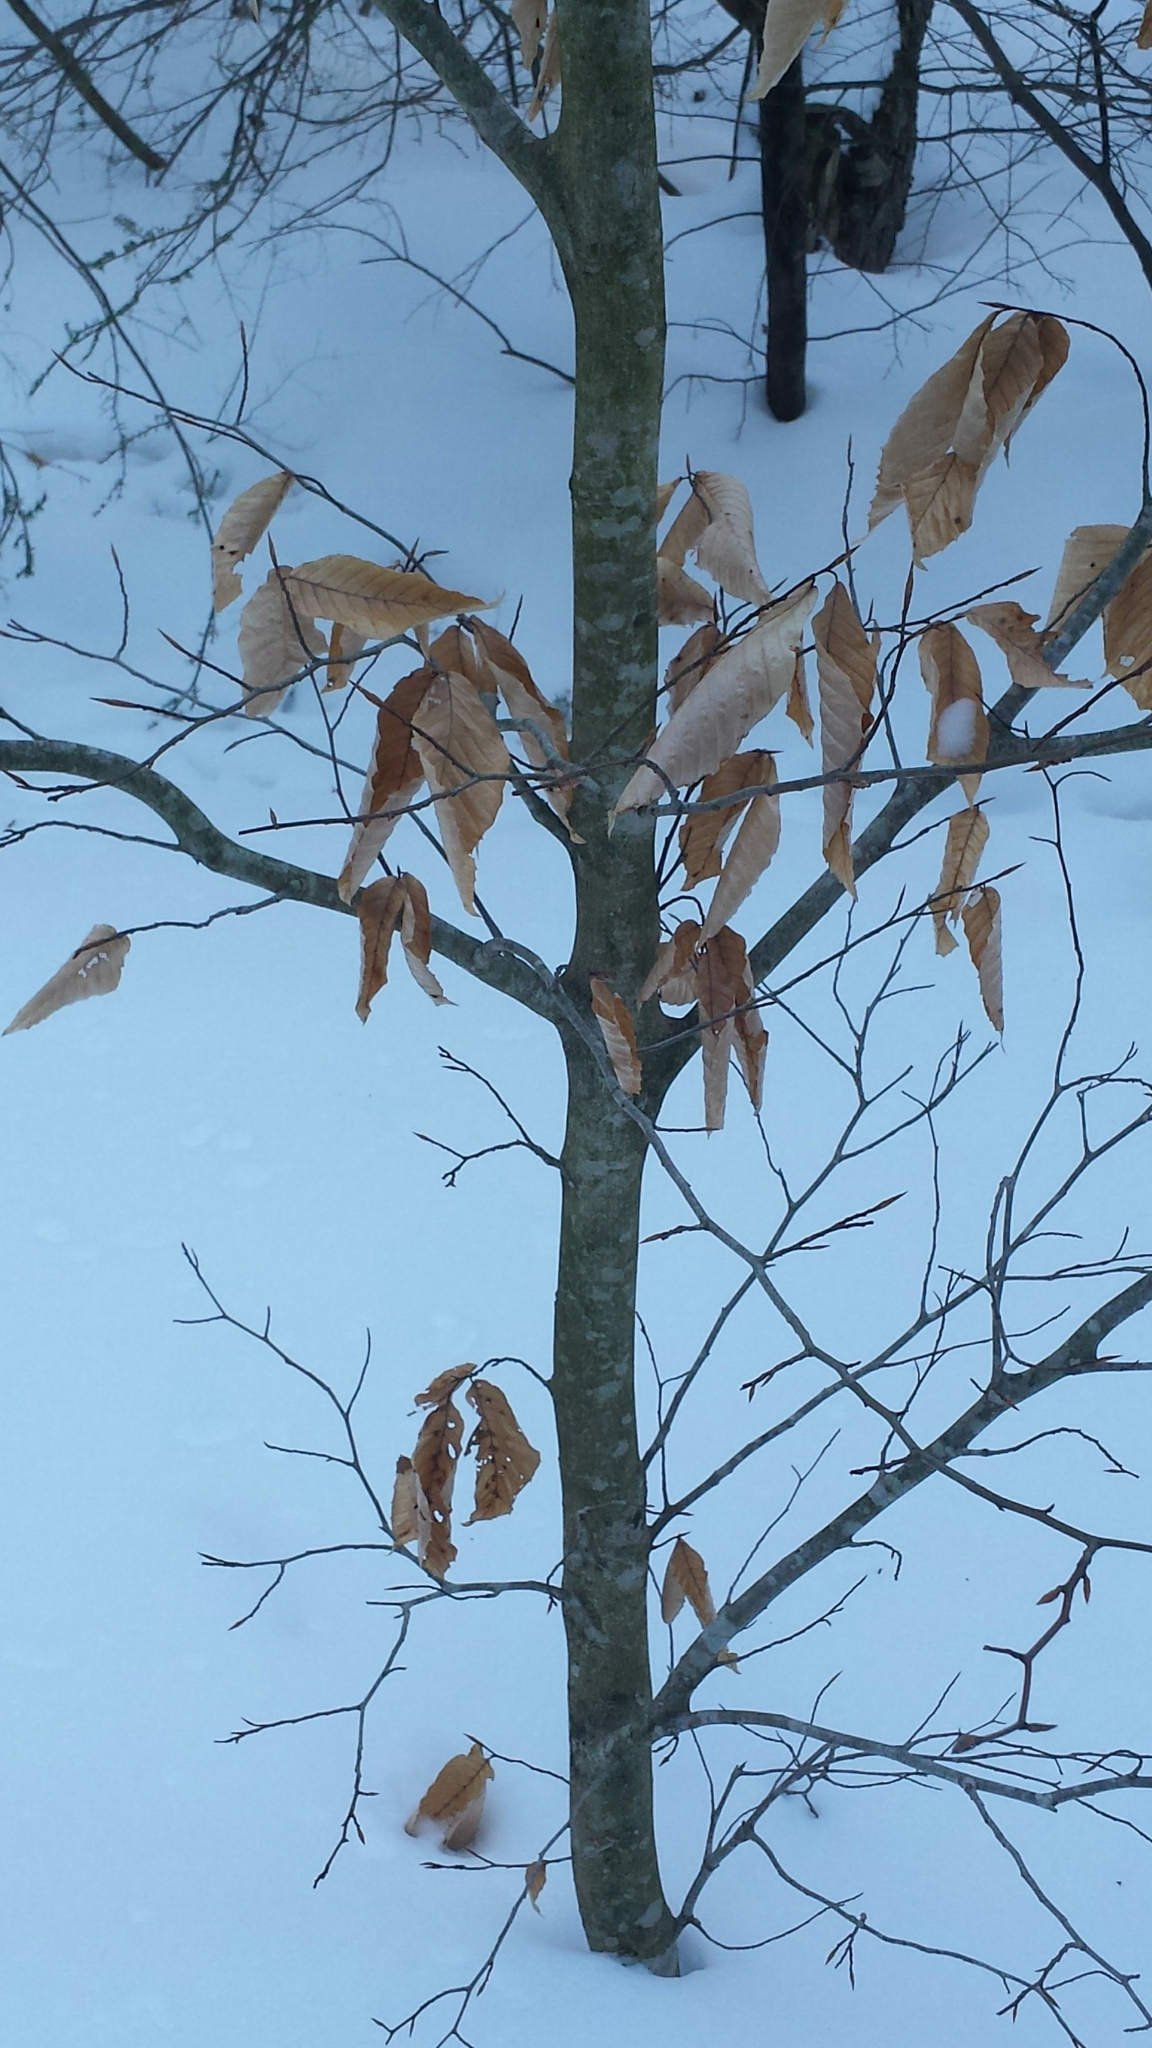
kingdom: Plantae
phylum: Tracheophyta
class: Magnoliopsida
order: Fagales
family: Fagaceae
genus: Fagus
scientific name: Fagus grandifolia
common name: American beech
